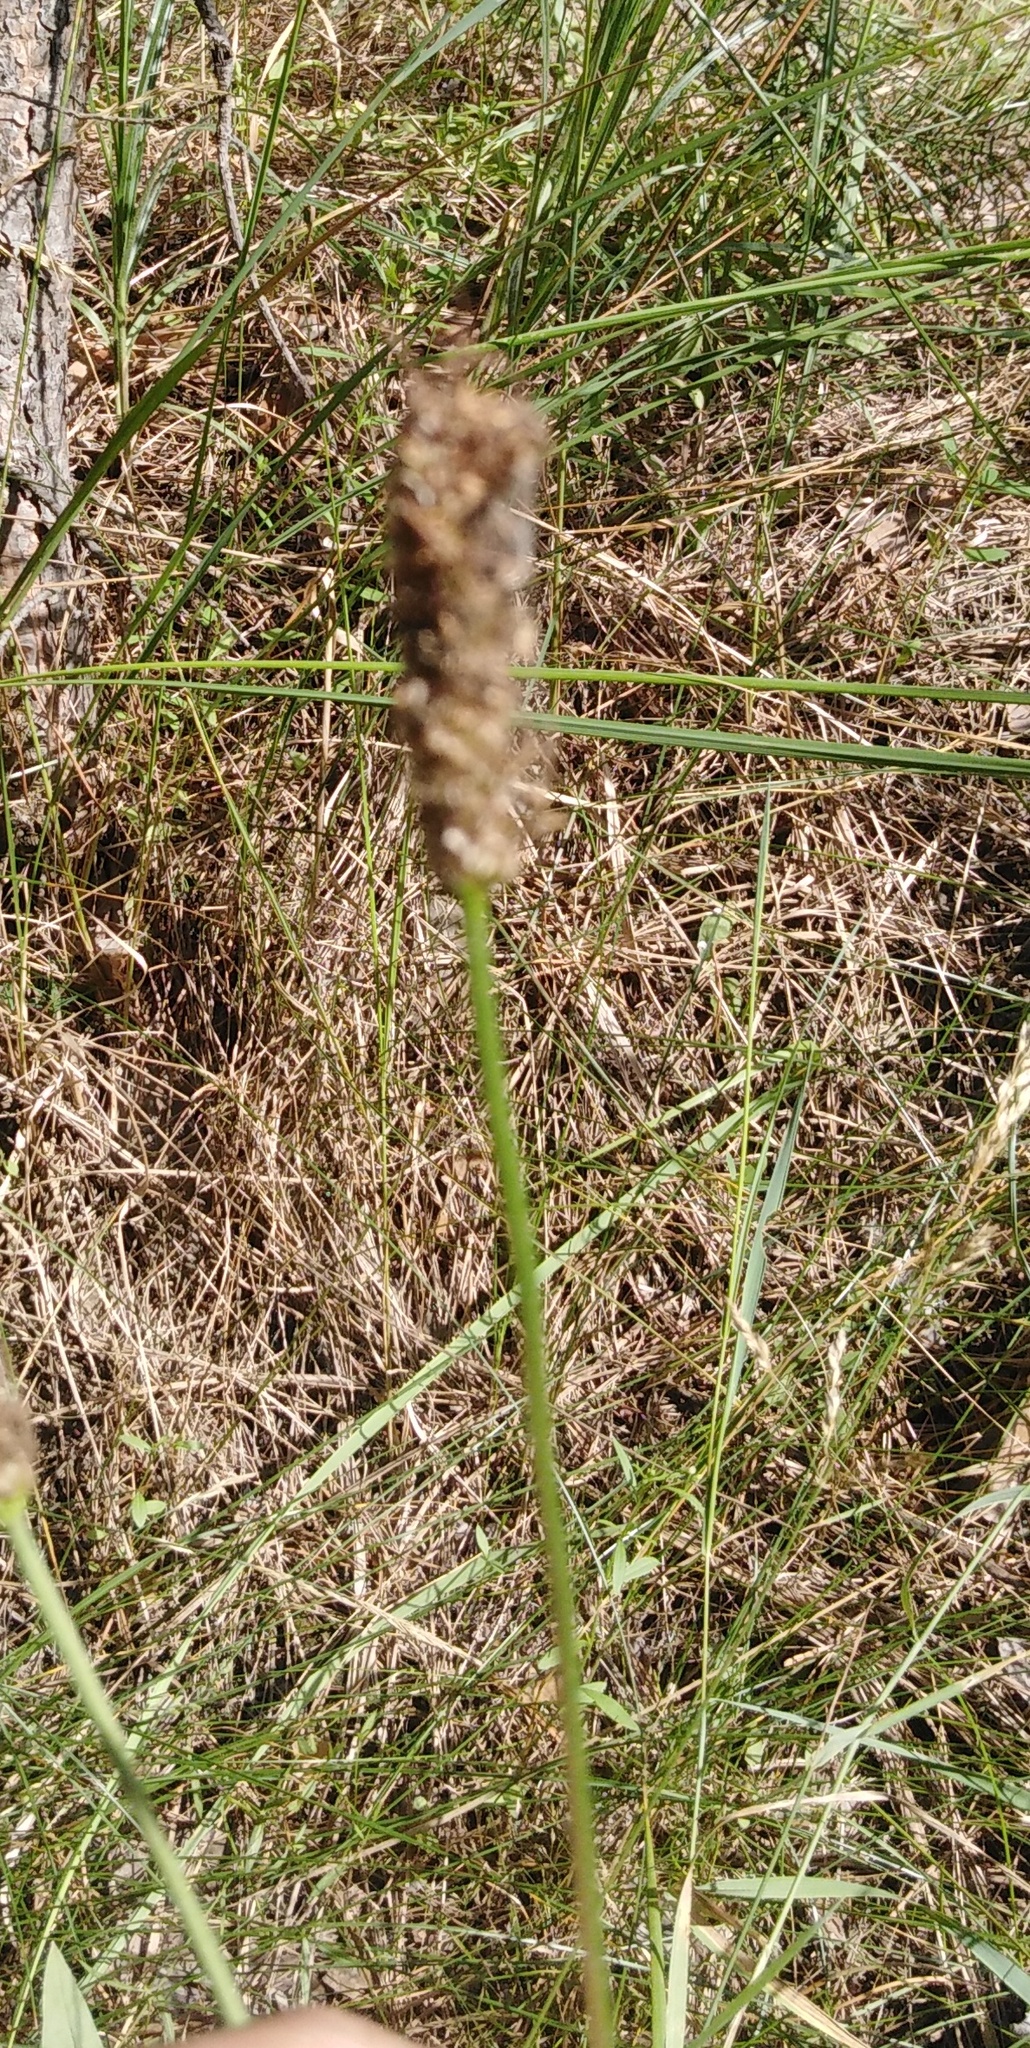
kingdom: Plantae
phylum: Tracheophyta
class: Magnoliopsida
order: Lamiales
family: Plantaginaceae
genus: Plantago
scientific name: Plantago lanceolata
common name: Ribwort plantain
